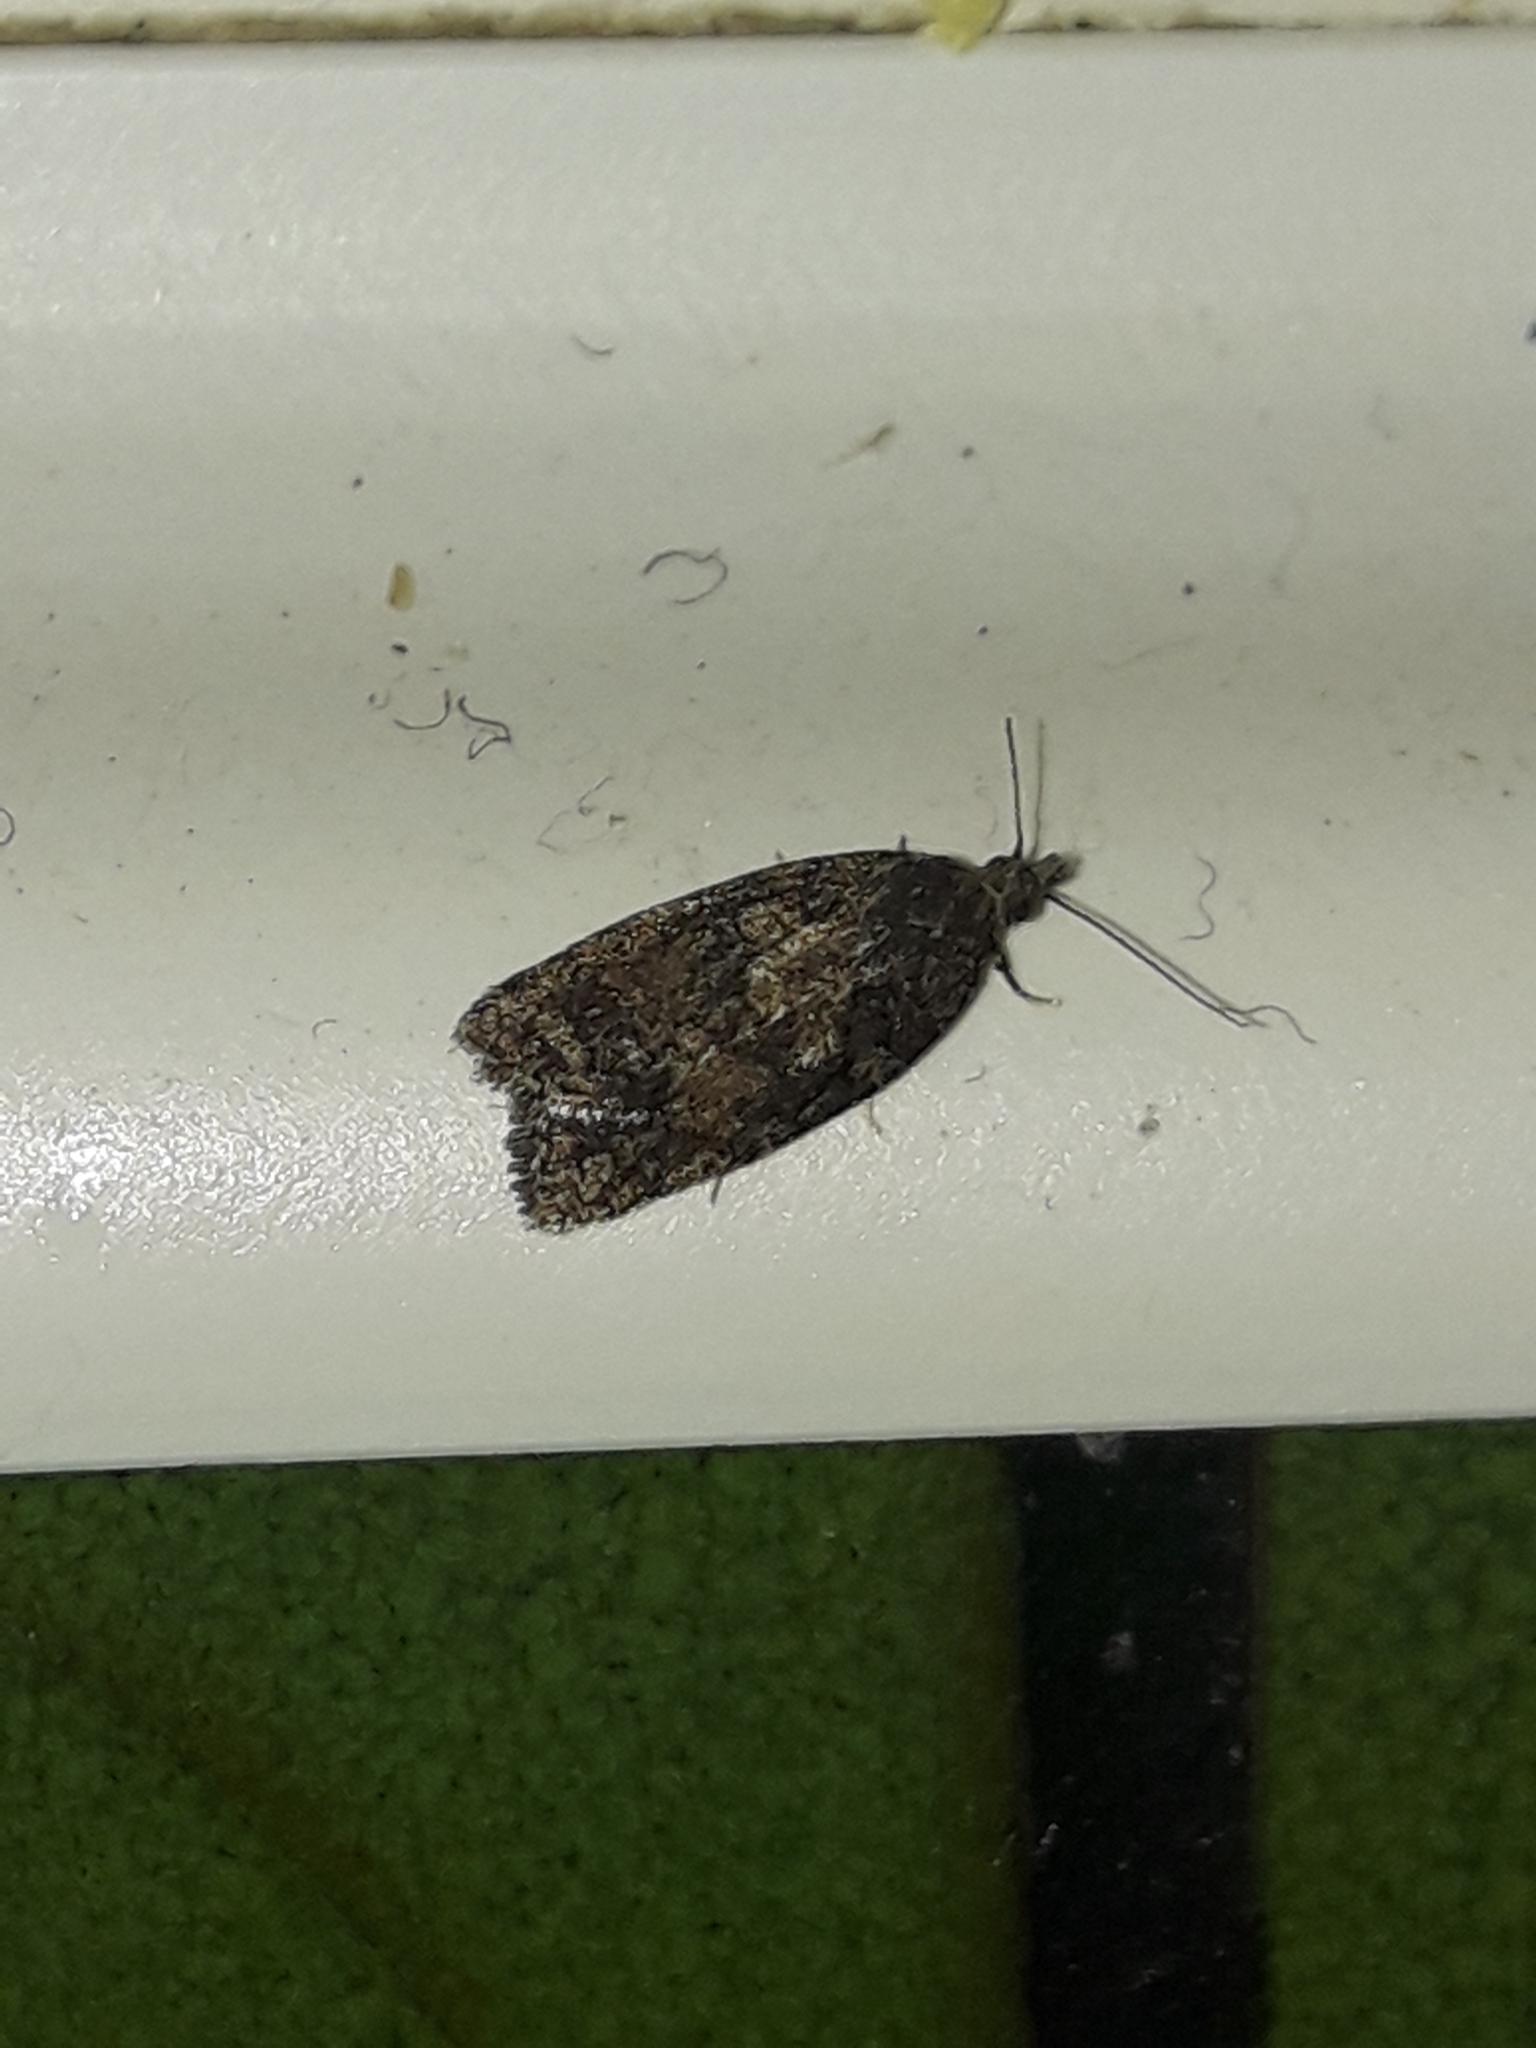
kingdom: Animalia
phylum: Arthropoda
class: Insecta
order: Lepidoptera
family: Tortricidae
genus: Capua
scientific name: Capua intractana
